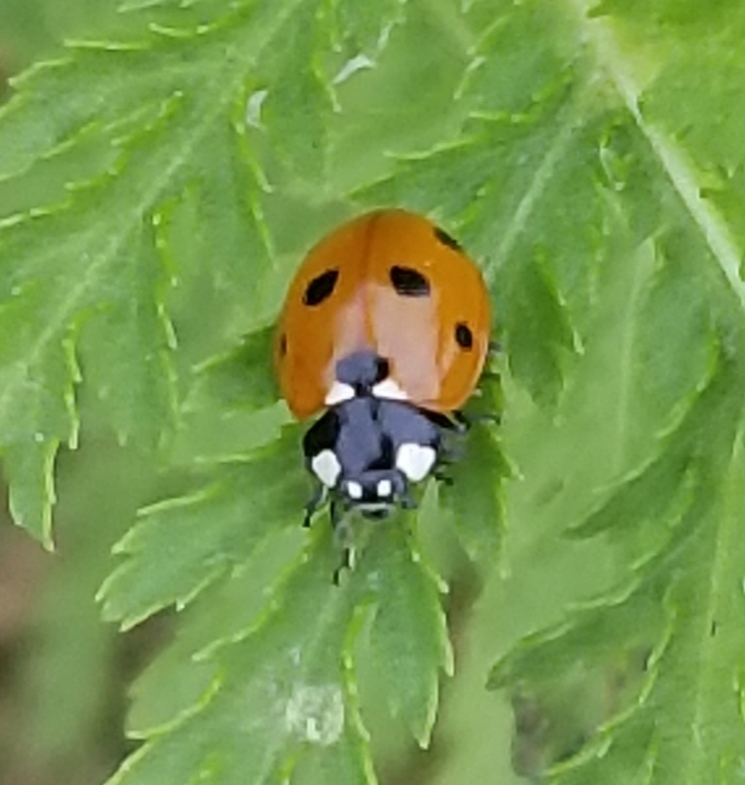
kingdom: Animalia
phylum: Arthropoda
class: Insecta
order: Coleoptera
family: Coccinellidae
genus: Coccinella
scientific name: Coccinella septempunctata
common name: Sevenspotted lady beetle
